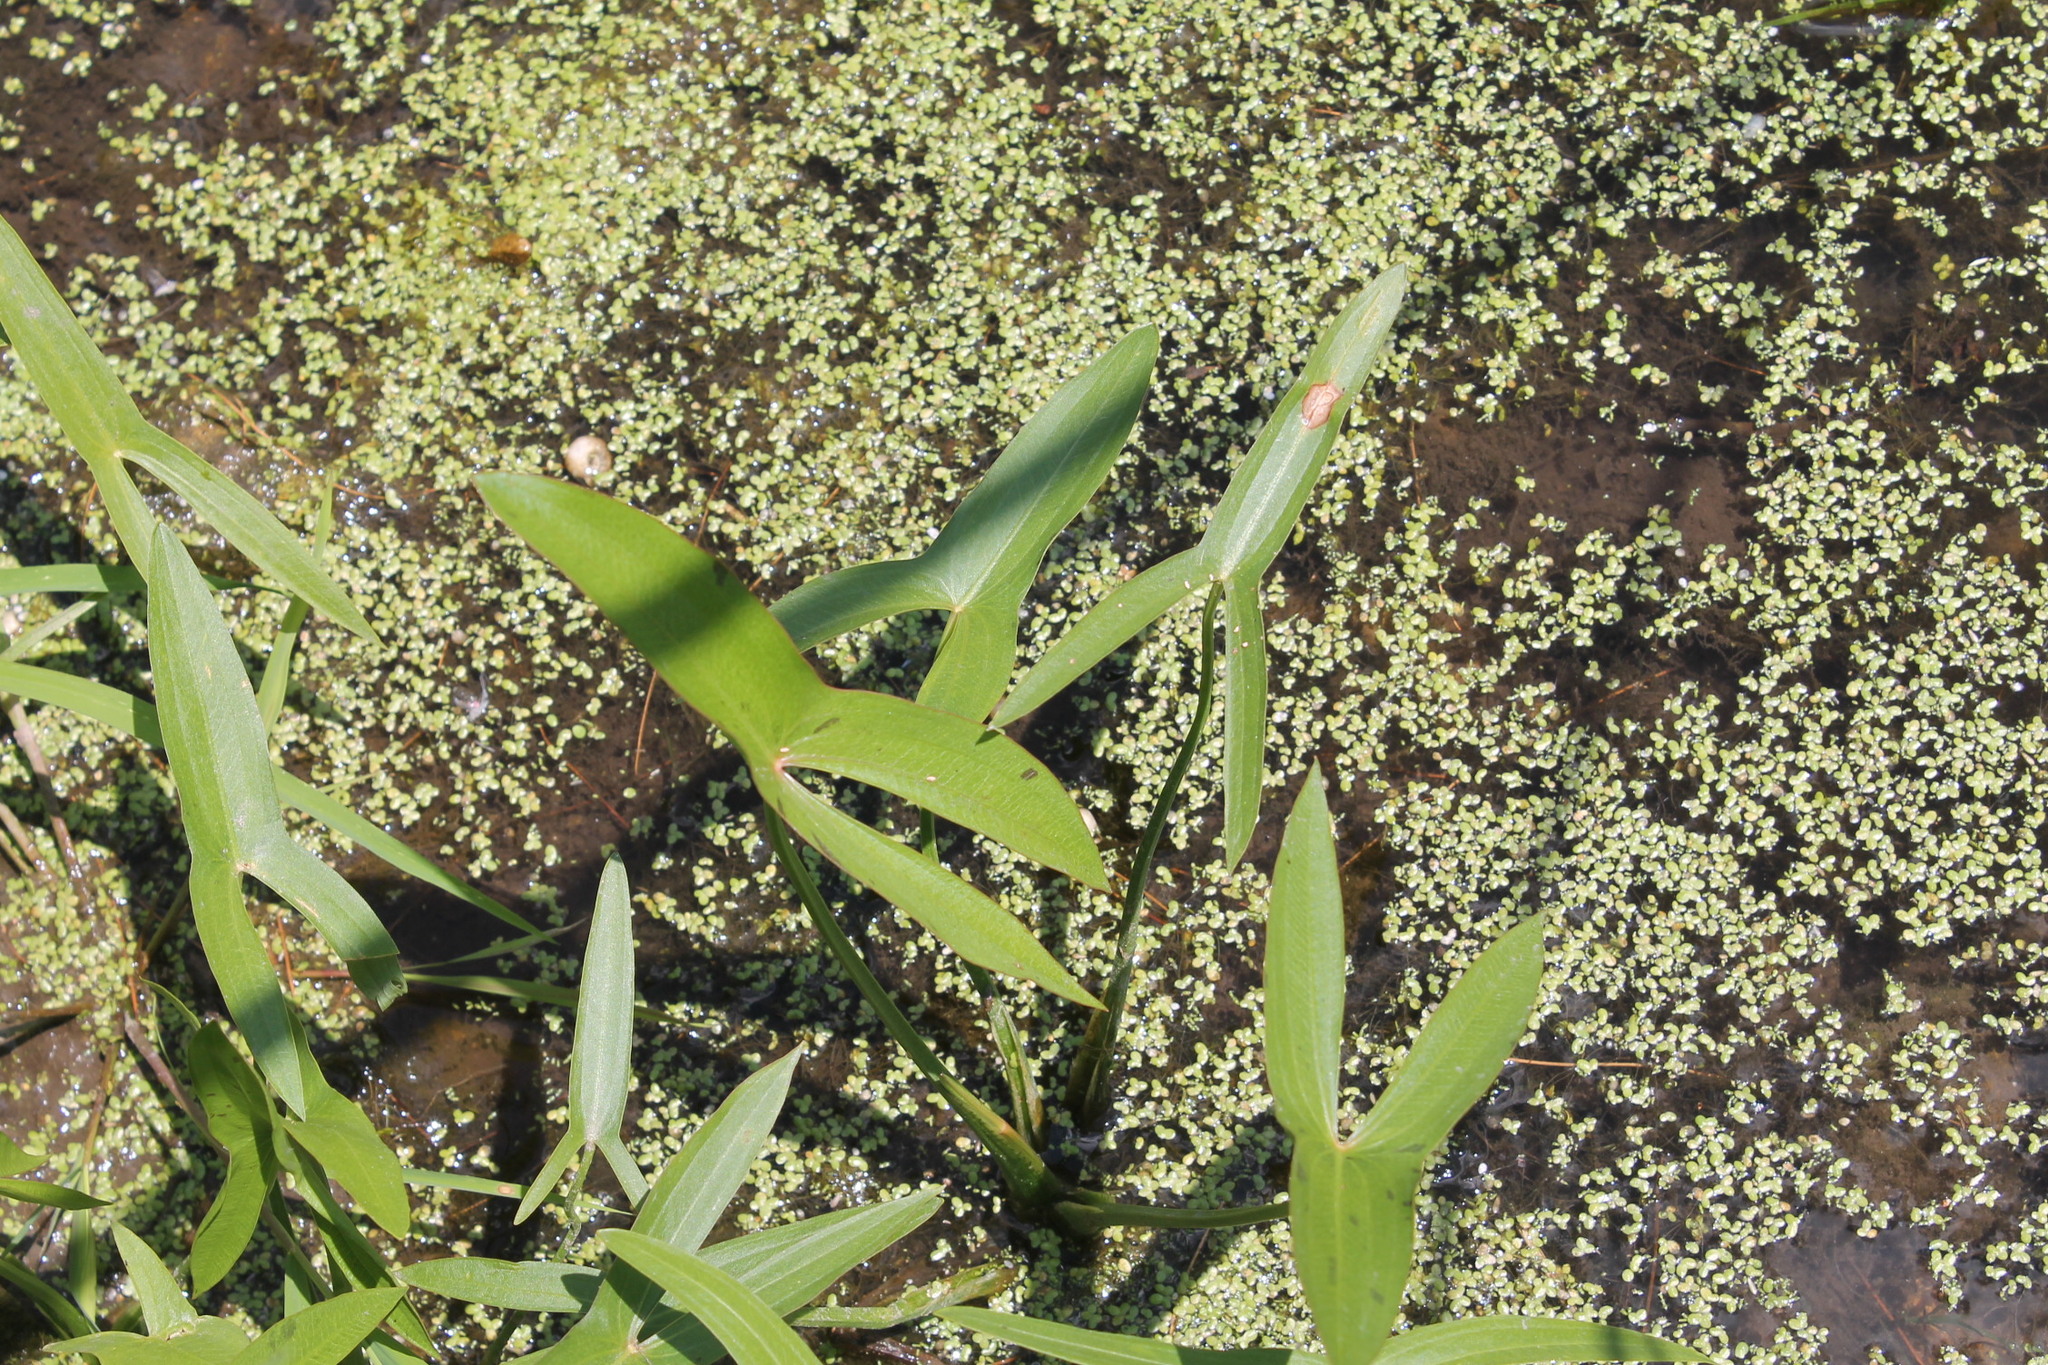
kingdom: Plantae
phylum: Tracheophyta
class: Liliopsida
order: Alismatales
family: Alismataceae
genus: Sagittaria
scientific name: Sagittaria
